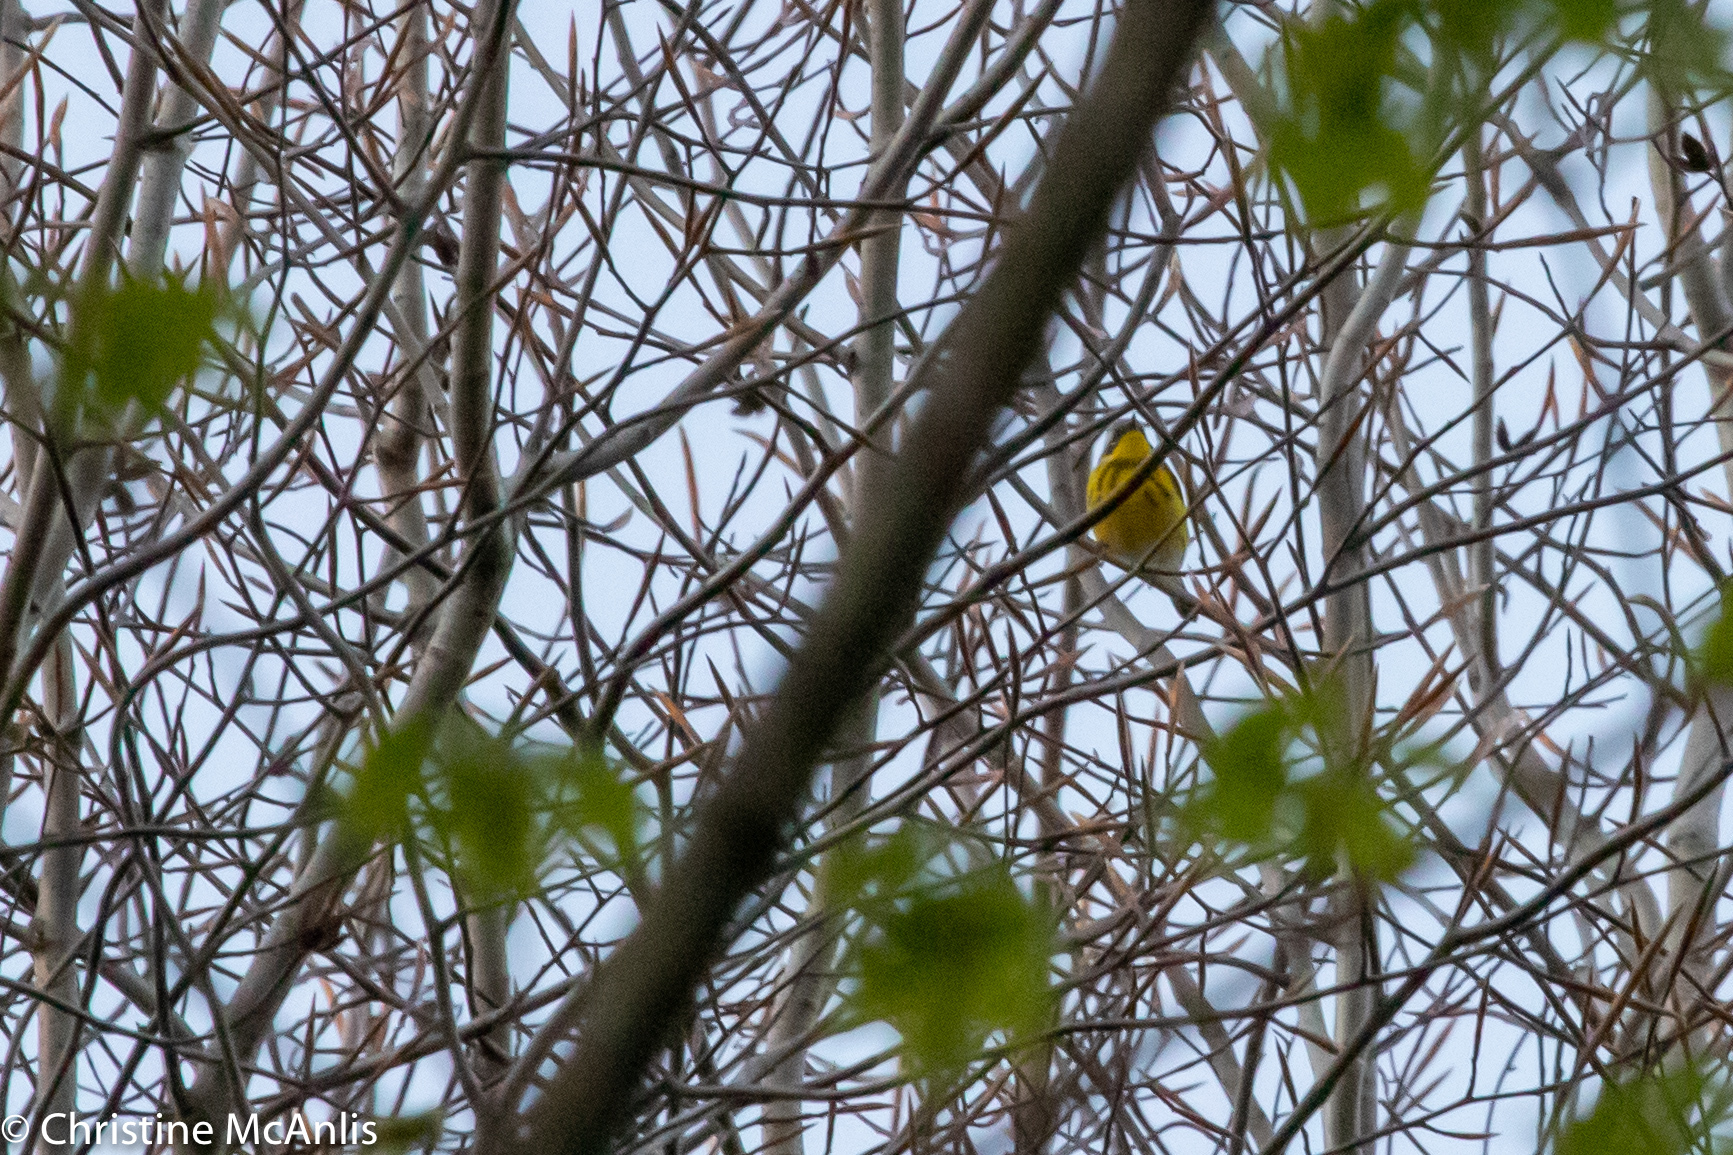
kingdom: Animalia
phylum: Chordata
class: Aves
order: Passeriformes
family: Parulidae
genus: Setophaga
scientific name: Setophaga magnolia
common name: Magnolia warbler
